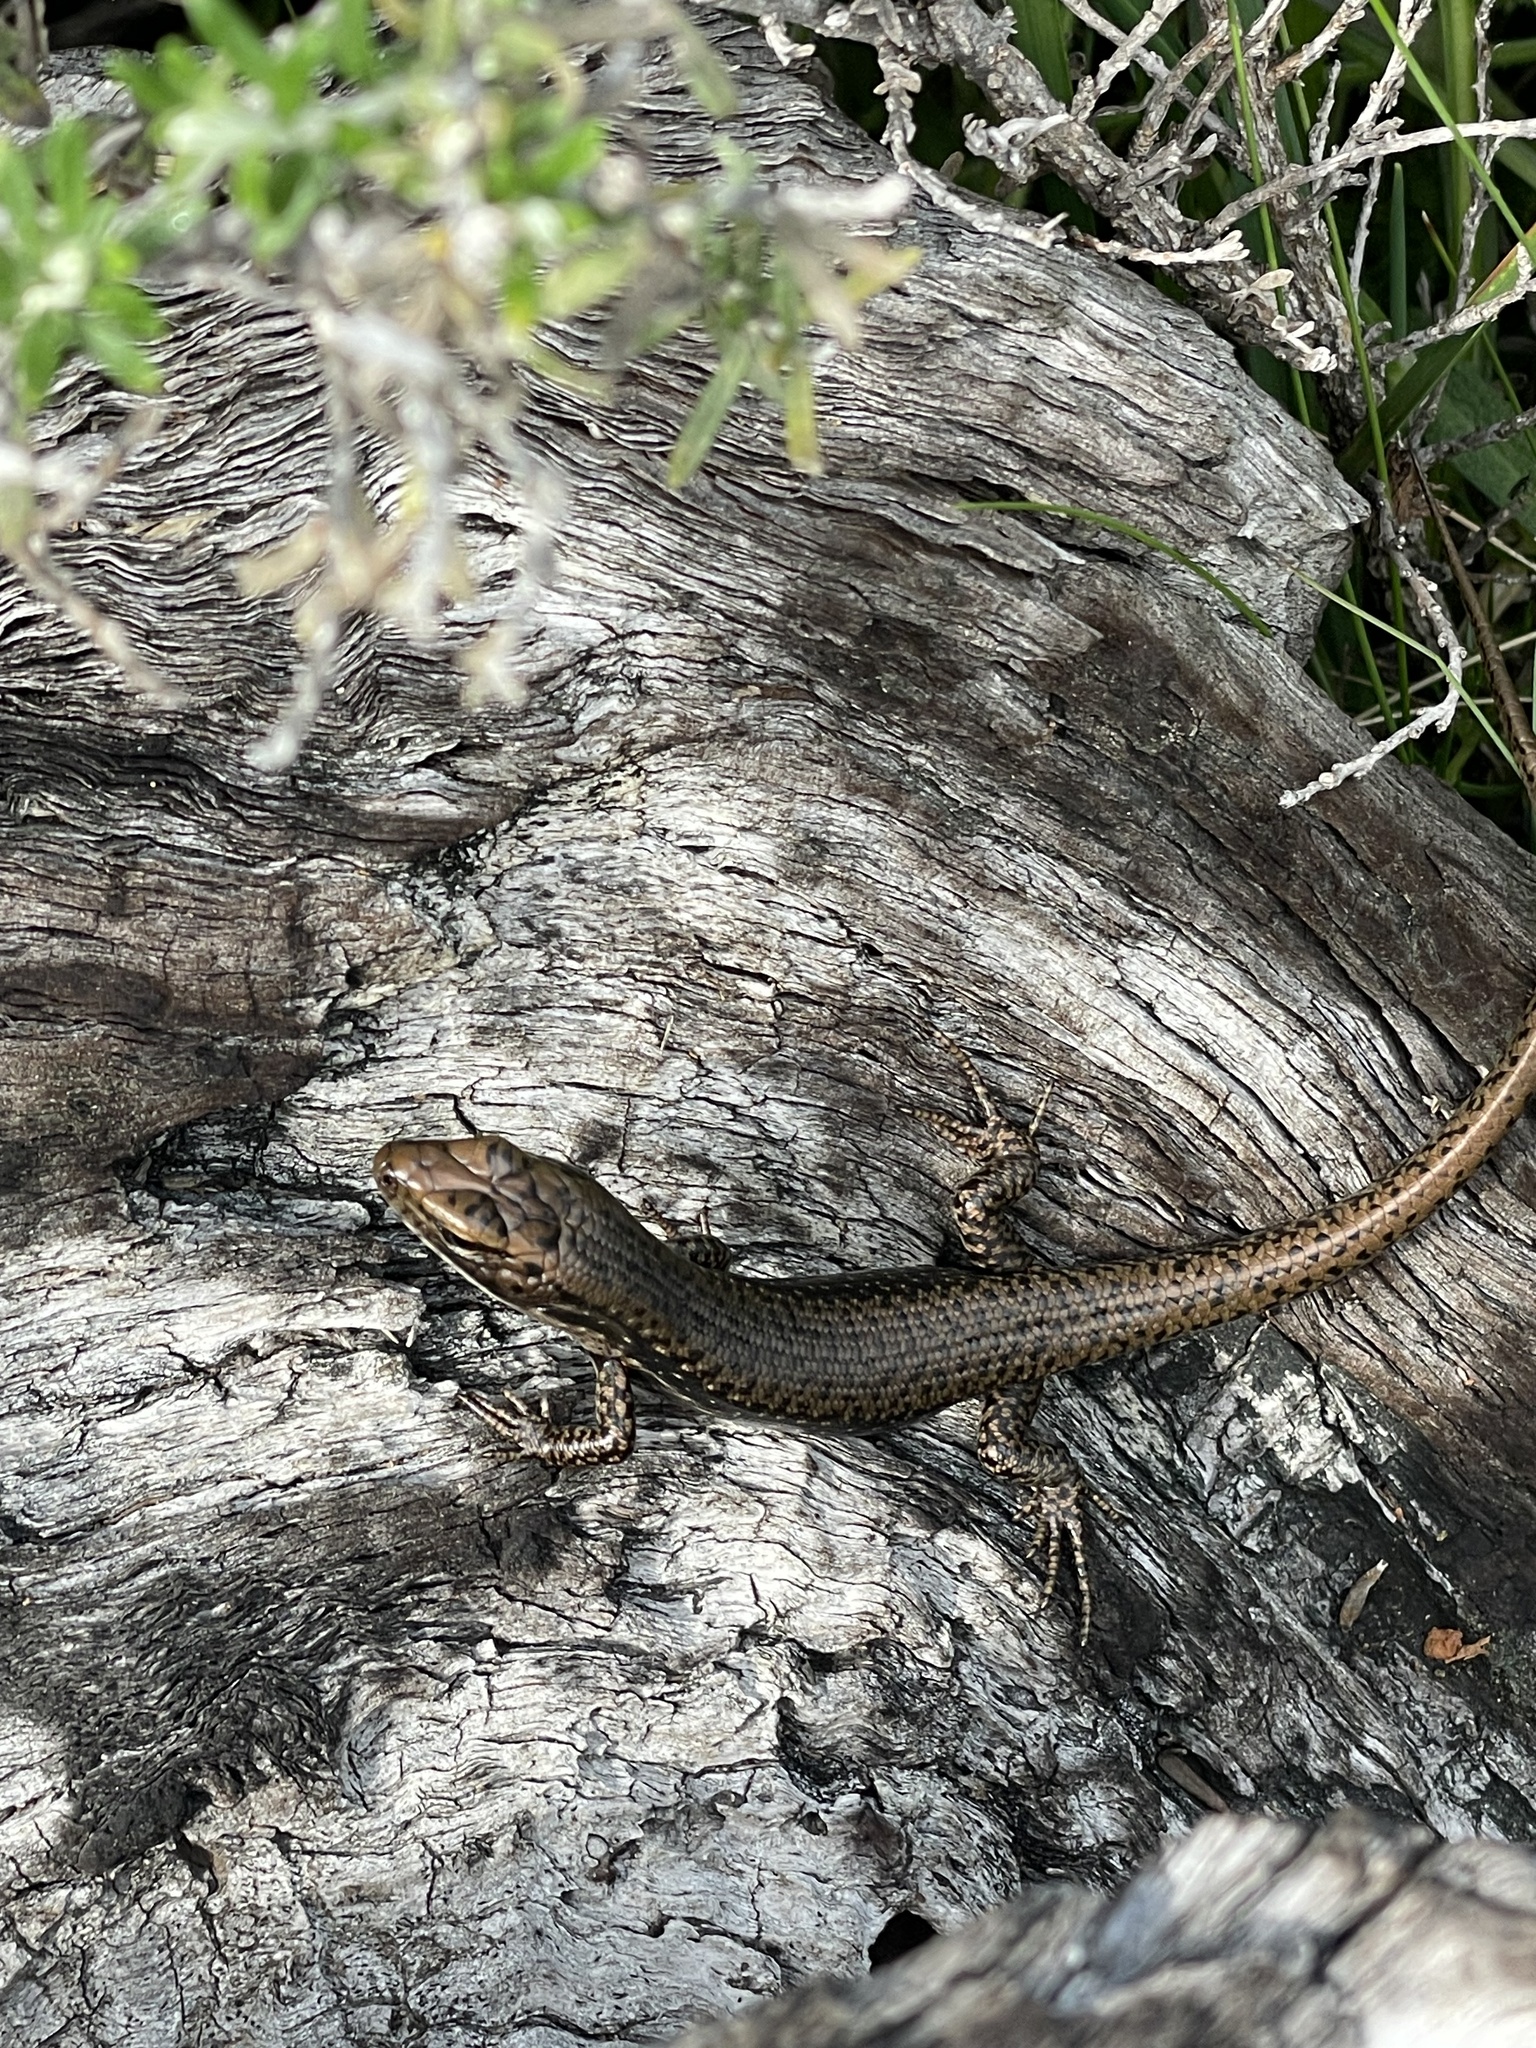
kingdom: Animalia
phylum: Chordata
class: Squamata
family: Scincidae
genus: Eulamprus
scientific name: Eulamprus tympanum
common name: Cool-temperate water-skink
